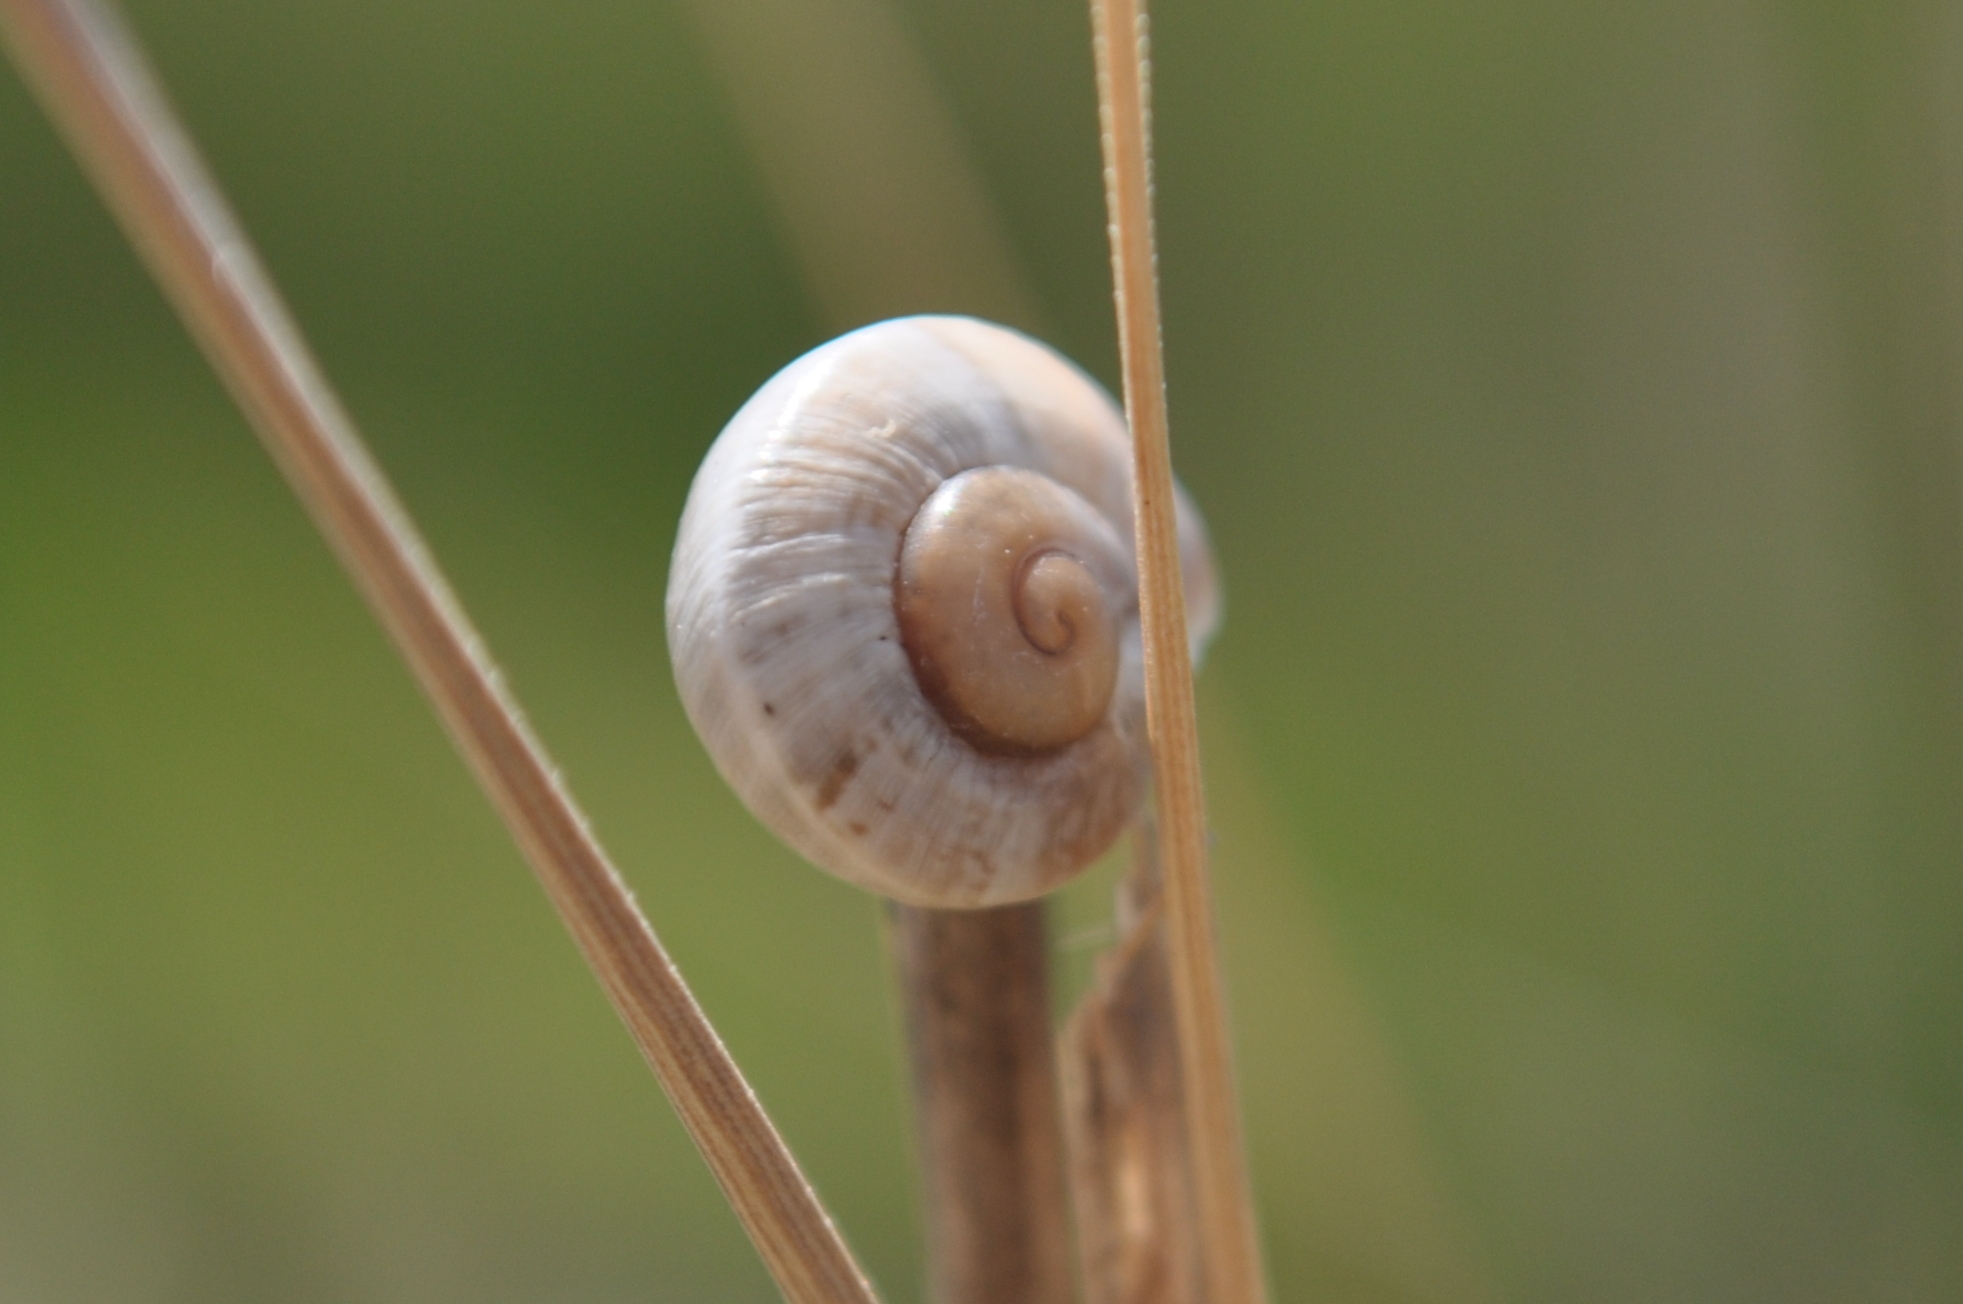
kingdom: Animalia
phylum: Mollusca
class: Gastropoda
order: Stylommatophora
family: Helicidae
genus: Otala
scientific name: Otala lactea
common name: Milk snail
